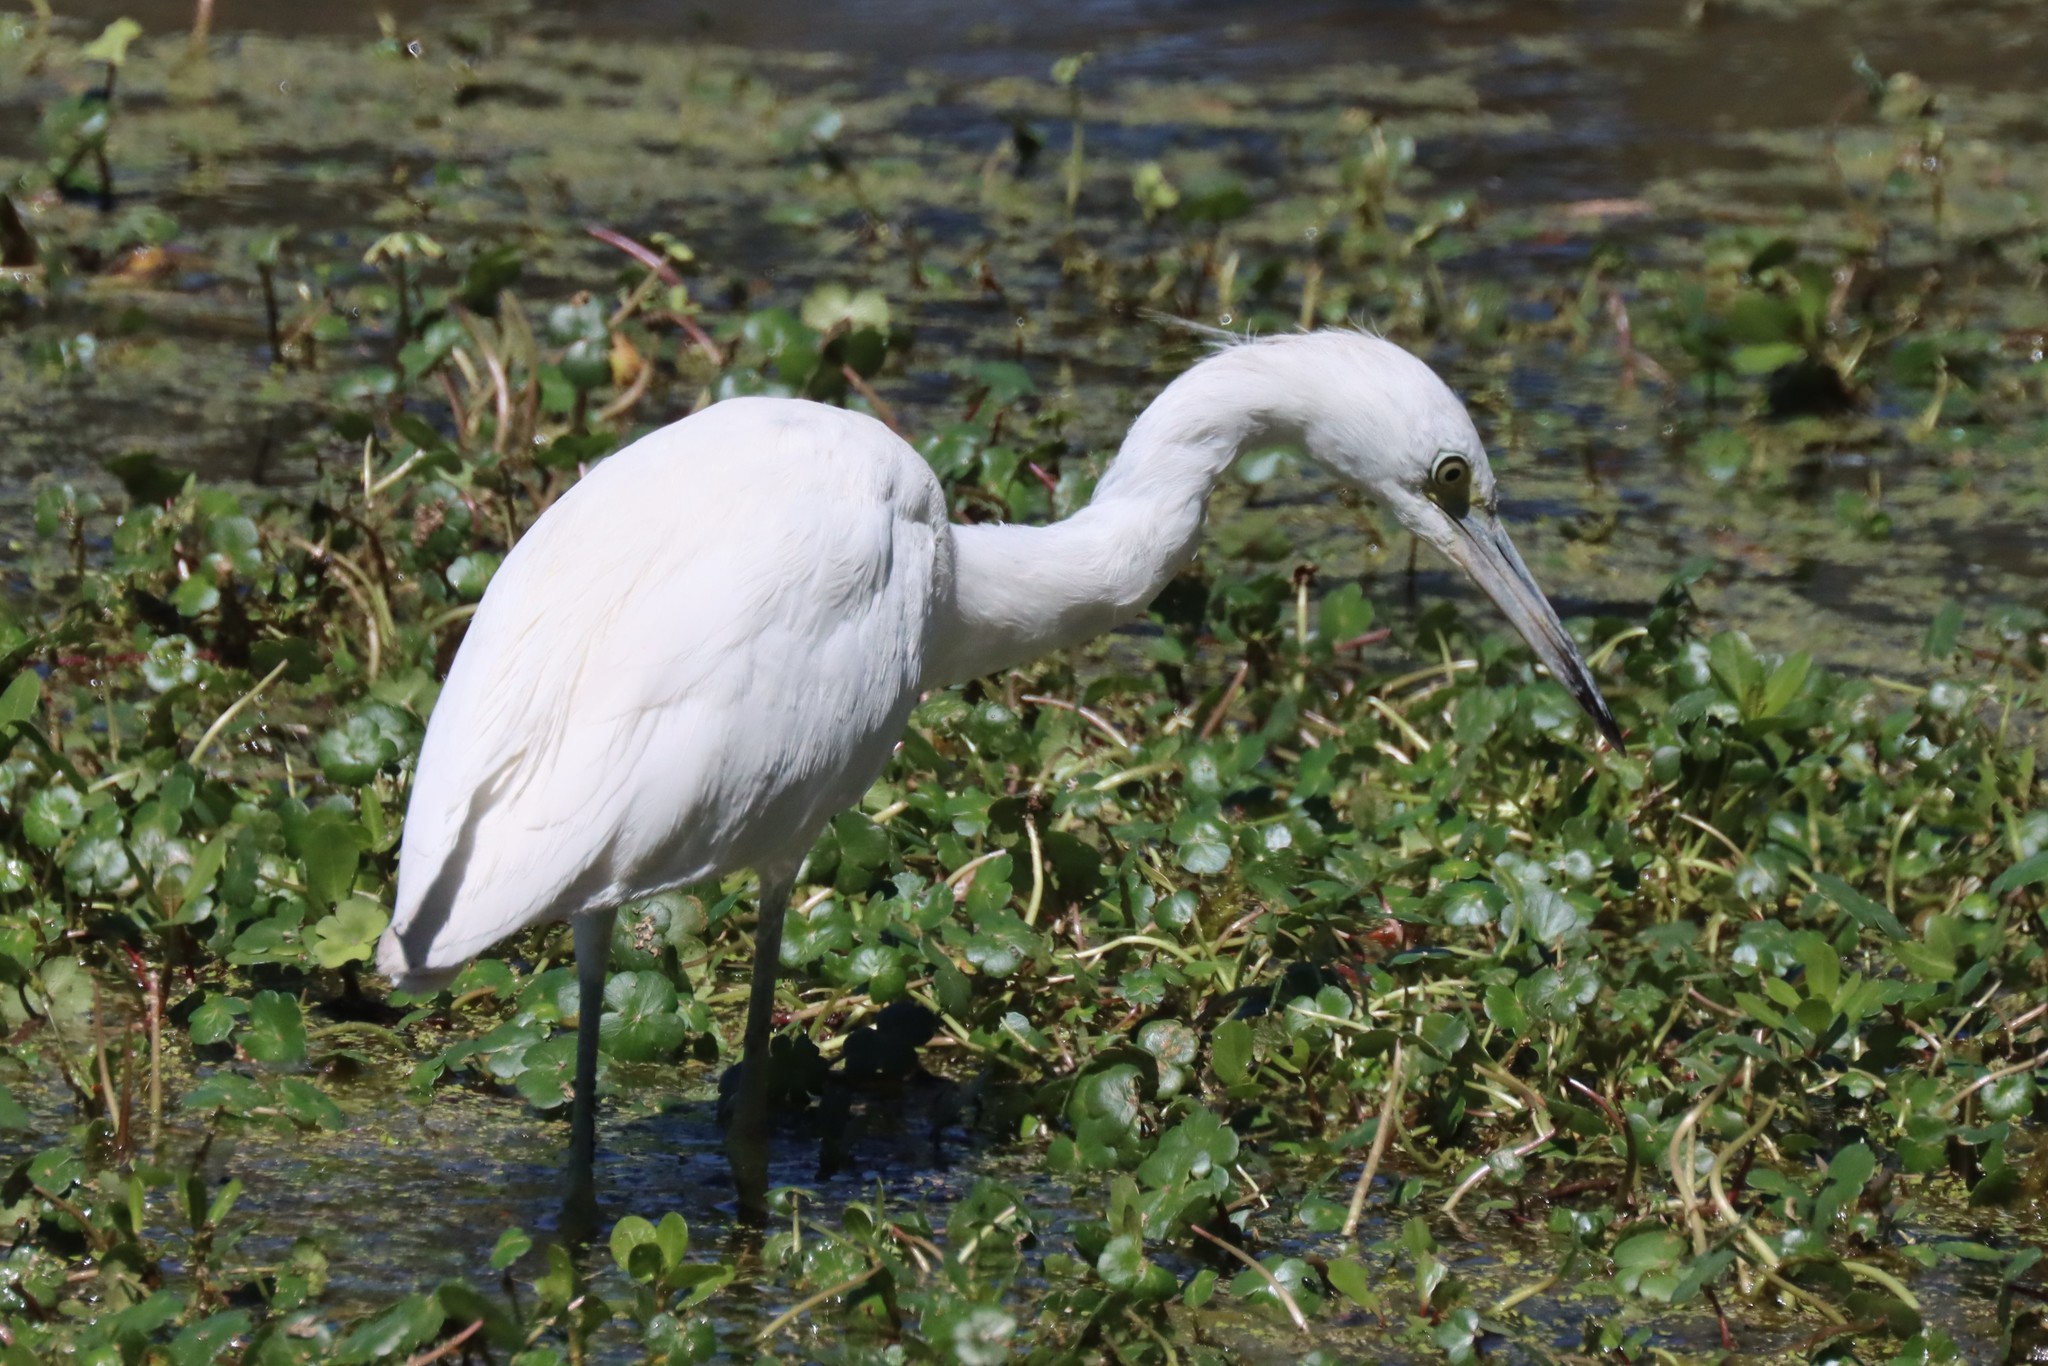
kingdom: Animalia
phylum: Chordata
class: Aves
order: Pelecaniformes
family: Ardeidae
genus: Egretta
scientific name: Egretta caerulea
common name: Little blue heron
